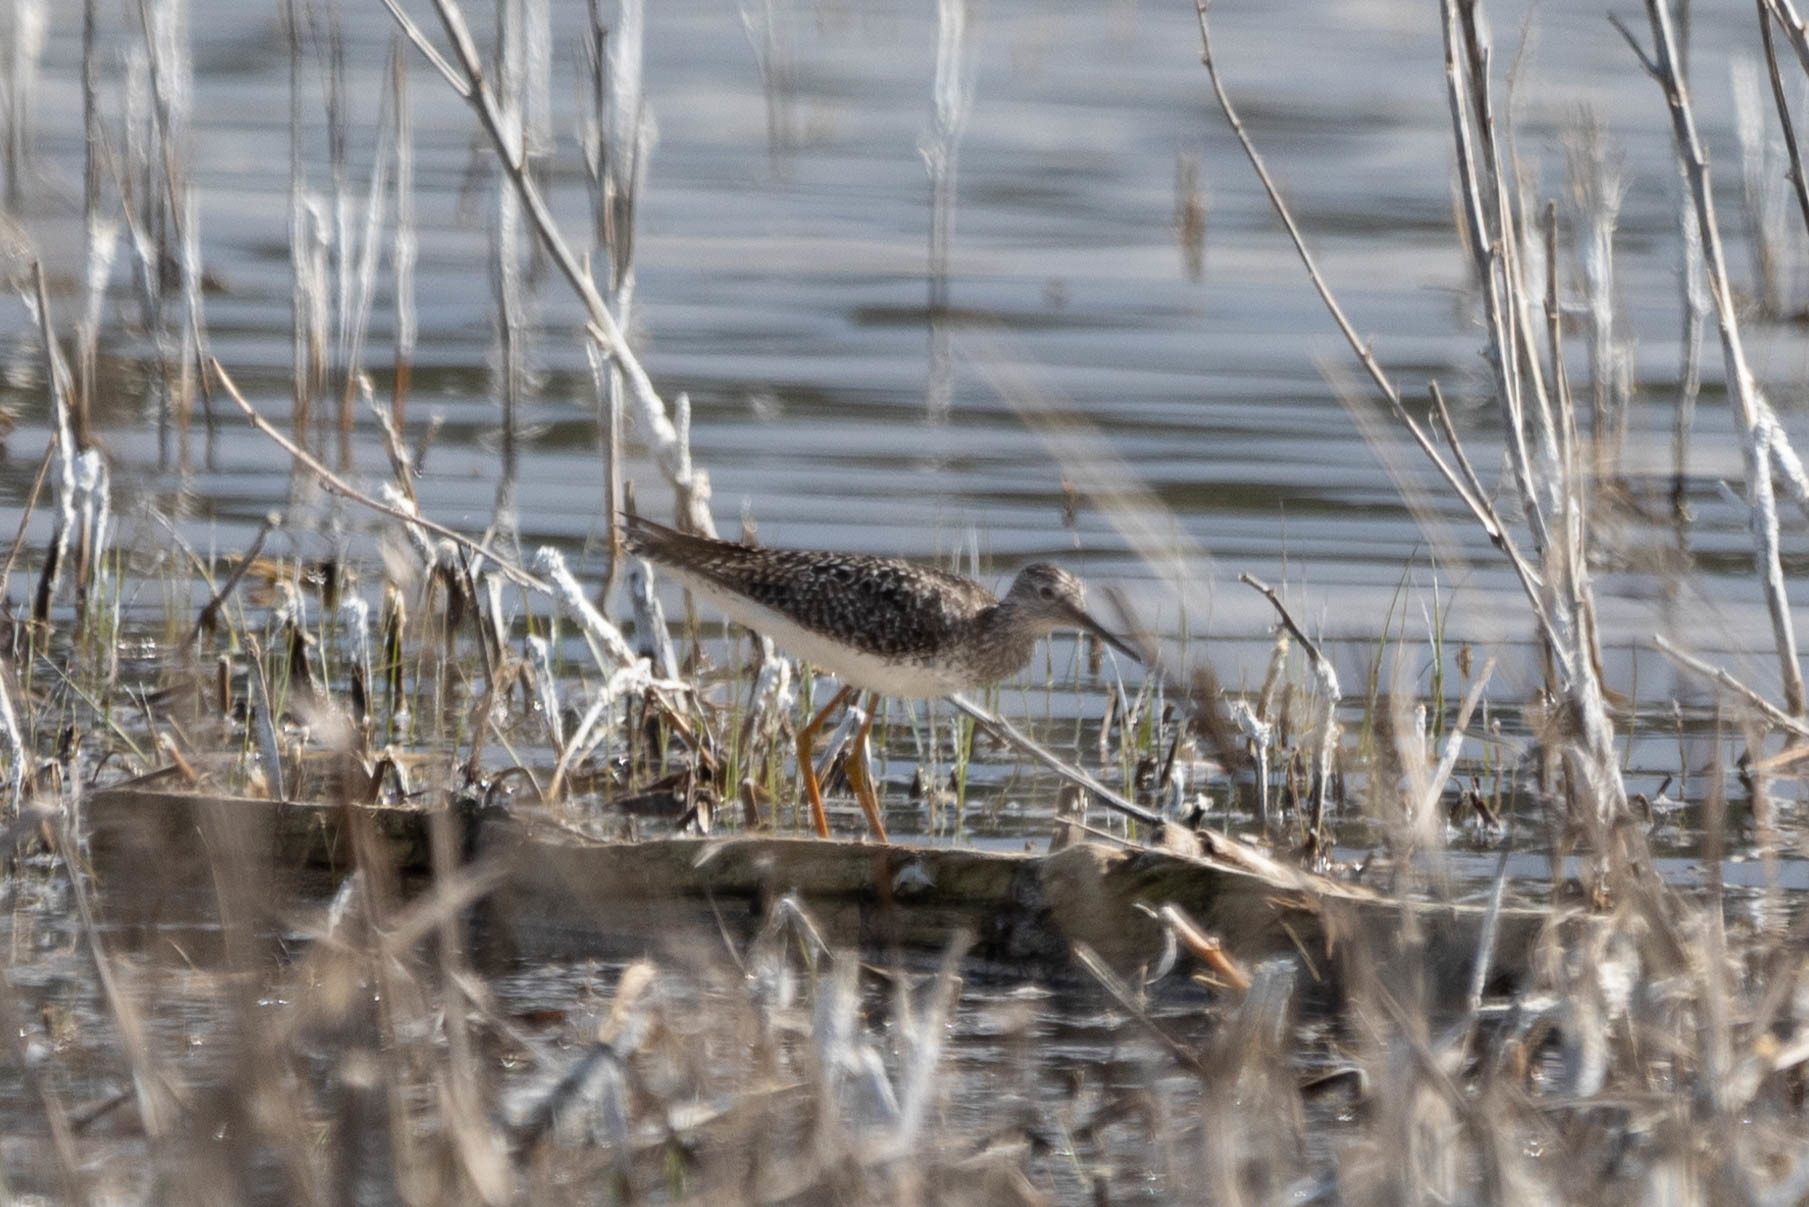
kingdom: Animalia
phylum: Chordata
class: Aves
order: Charadriiformes
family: Scolopacidae
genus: Tringa
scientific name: Tringa flavipes
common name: Lesser yellowlegs
